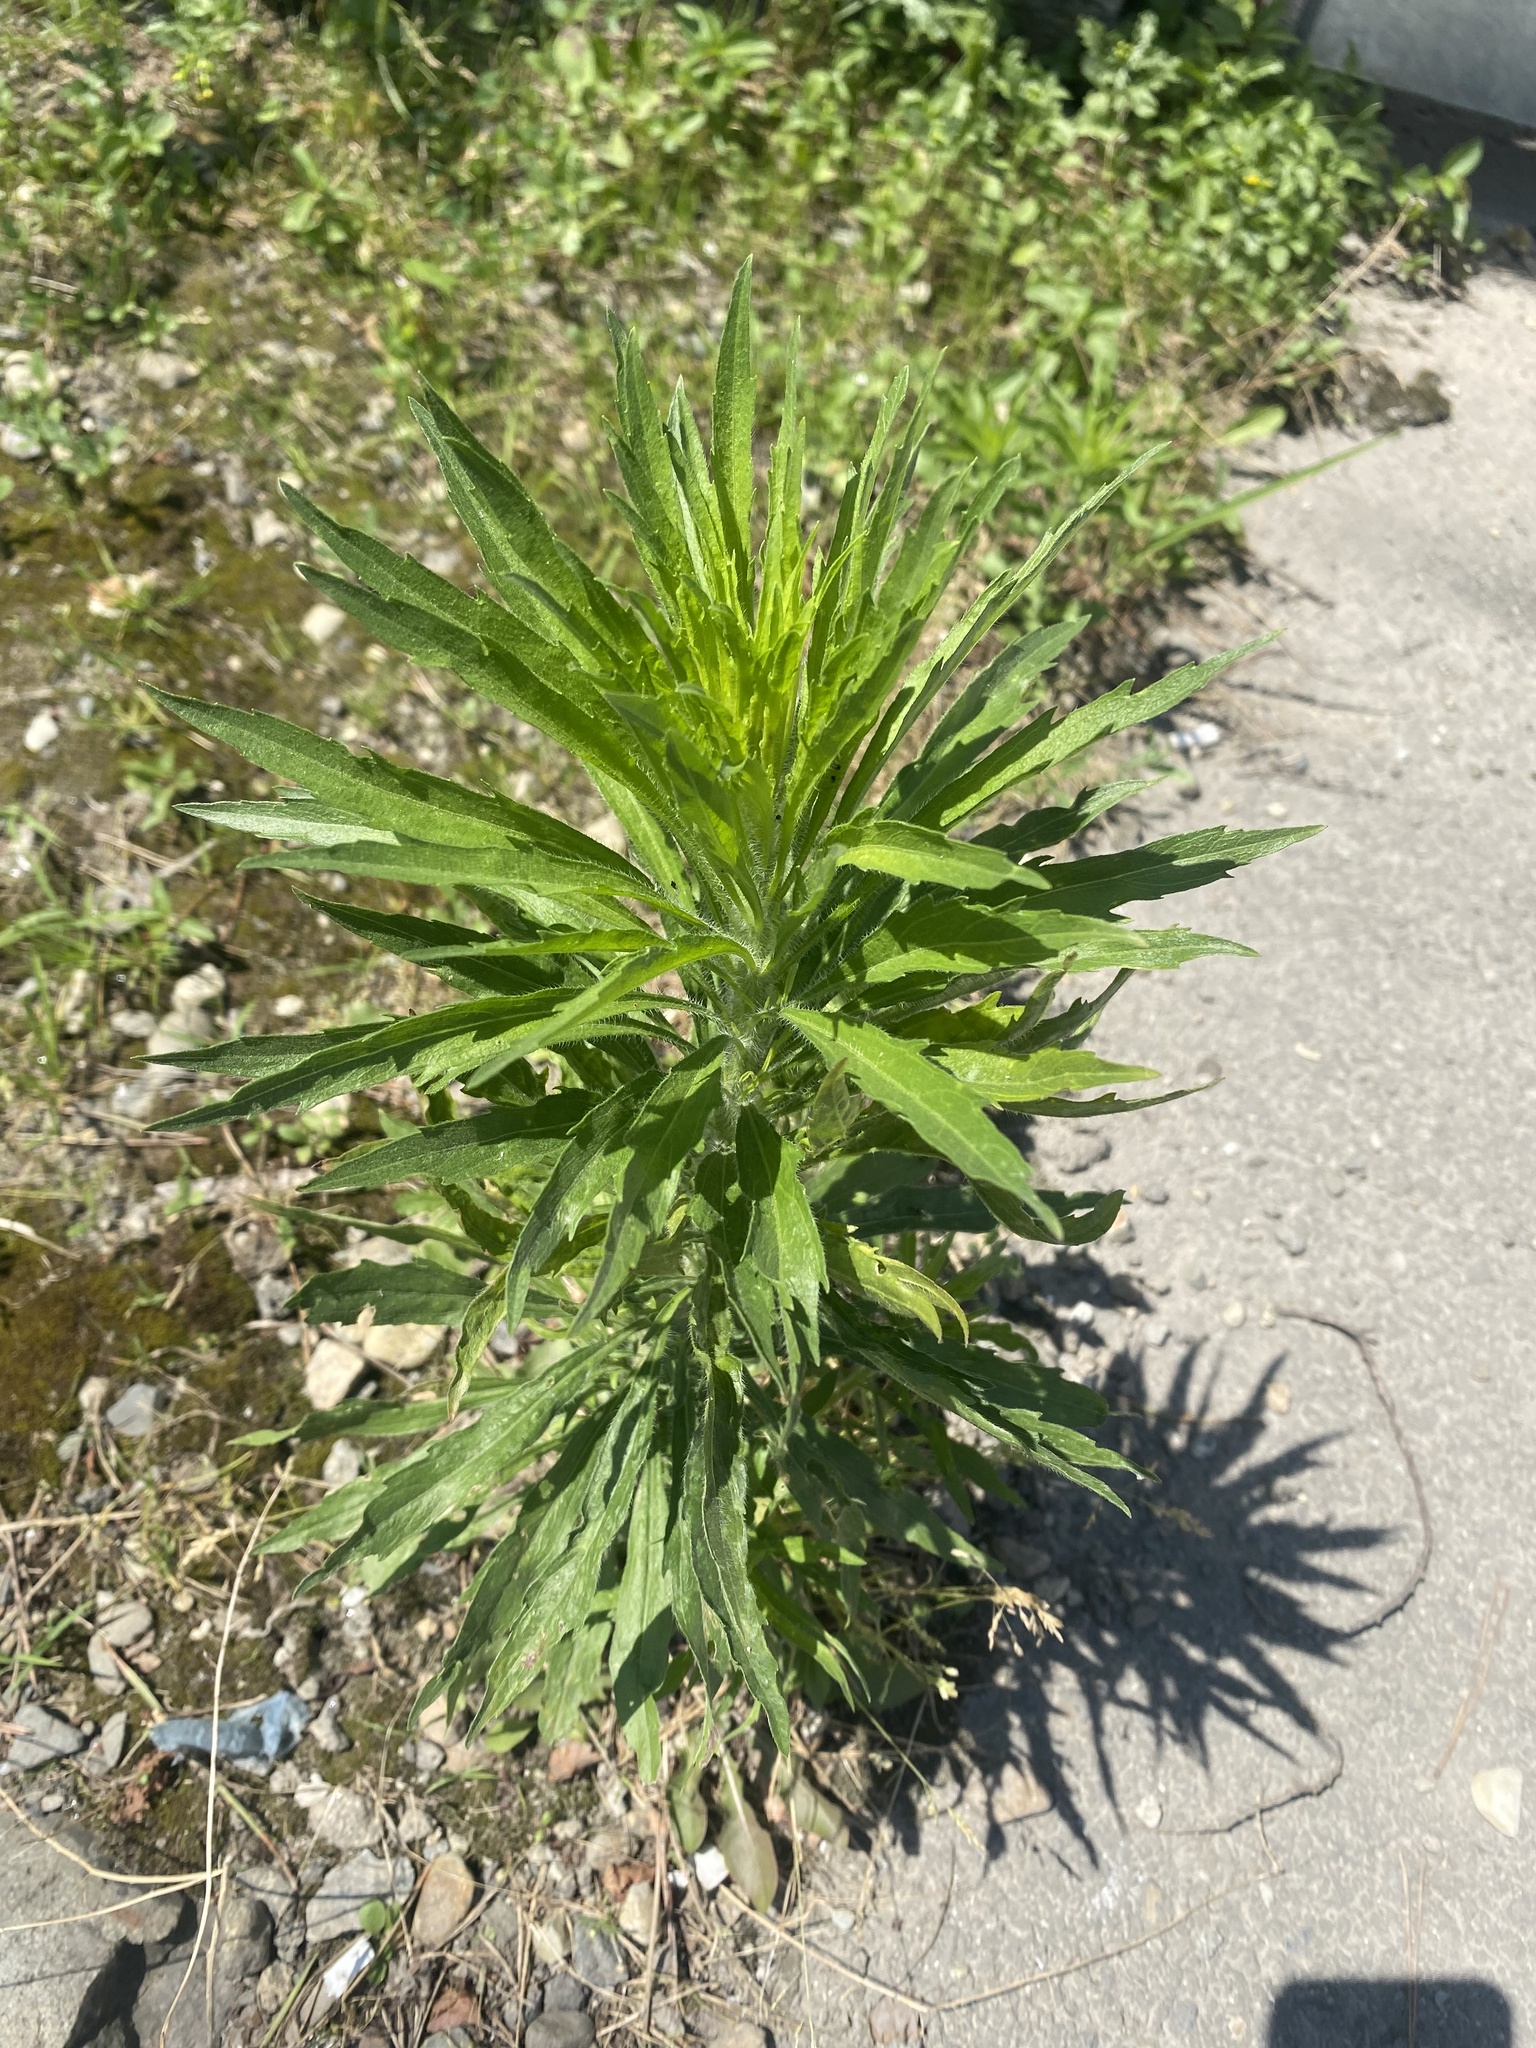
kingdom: Plantae
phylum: Tracheophyta
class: Magnoliopsida
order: Asterales
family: Asteraceae
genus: Erigeron
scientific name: Erigeron canadensis
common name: Canadian fleabane
